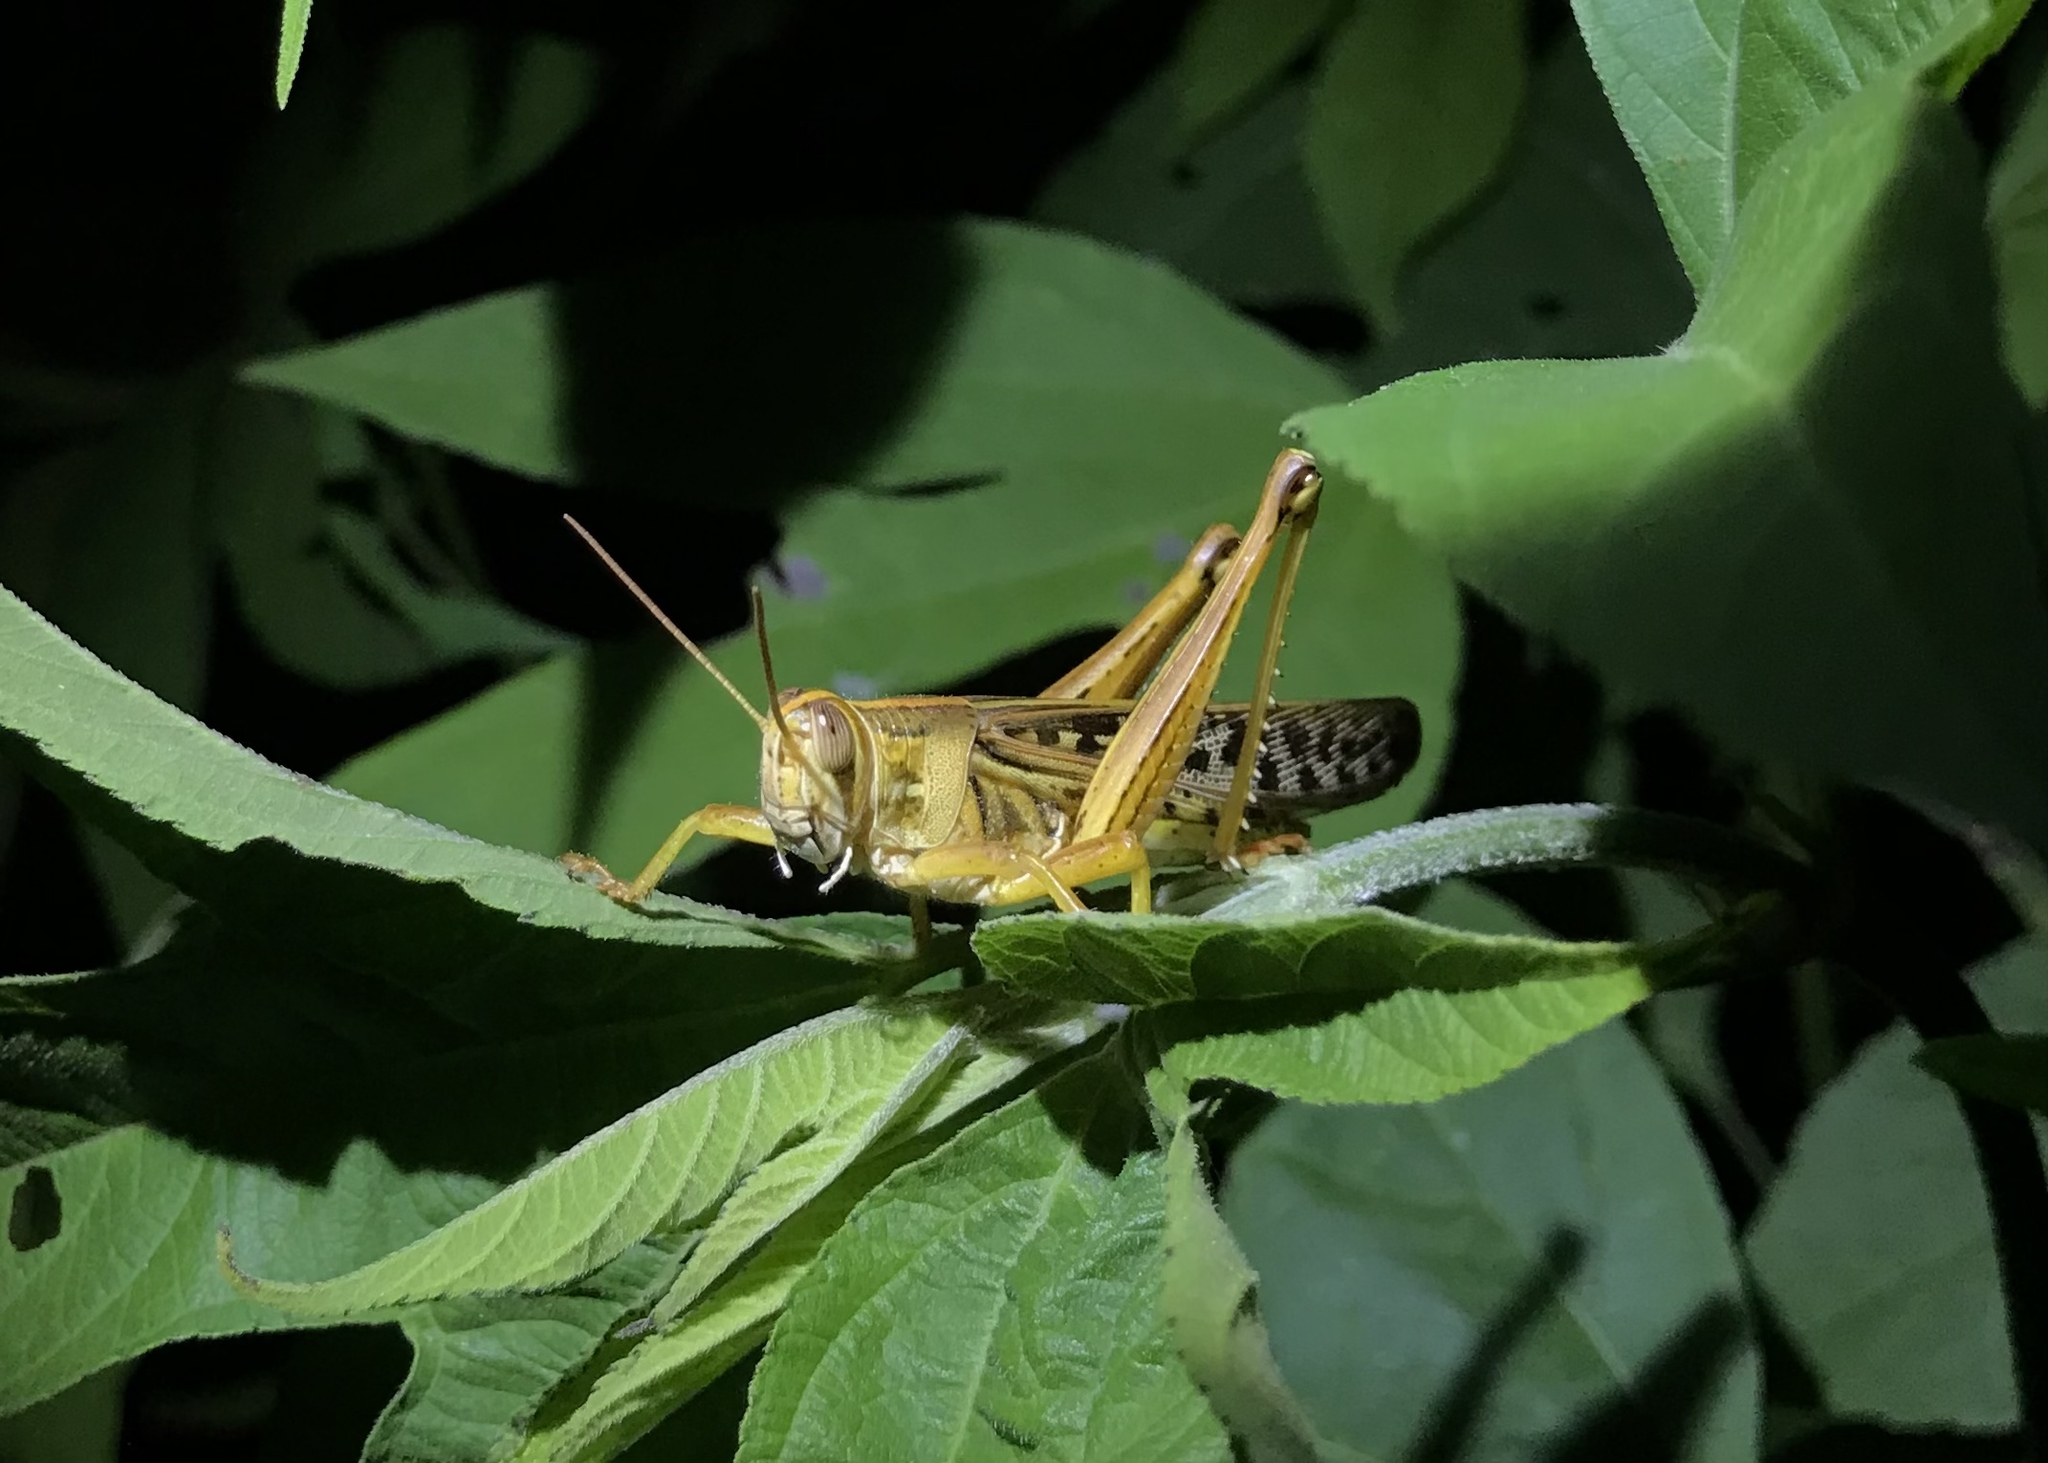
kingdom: Animalia
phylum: Arthropoda
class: Insecta
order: Orthoptera
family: Acrididae
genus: Schistocerca
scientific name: Schistocerca americana
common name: American bird locust
